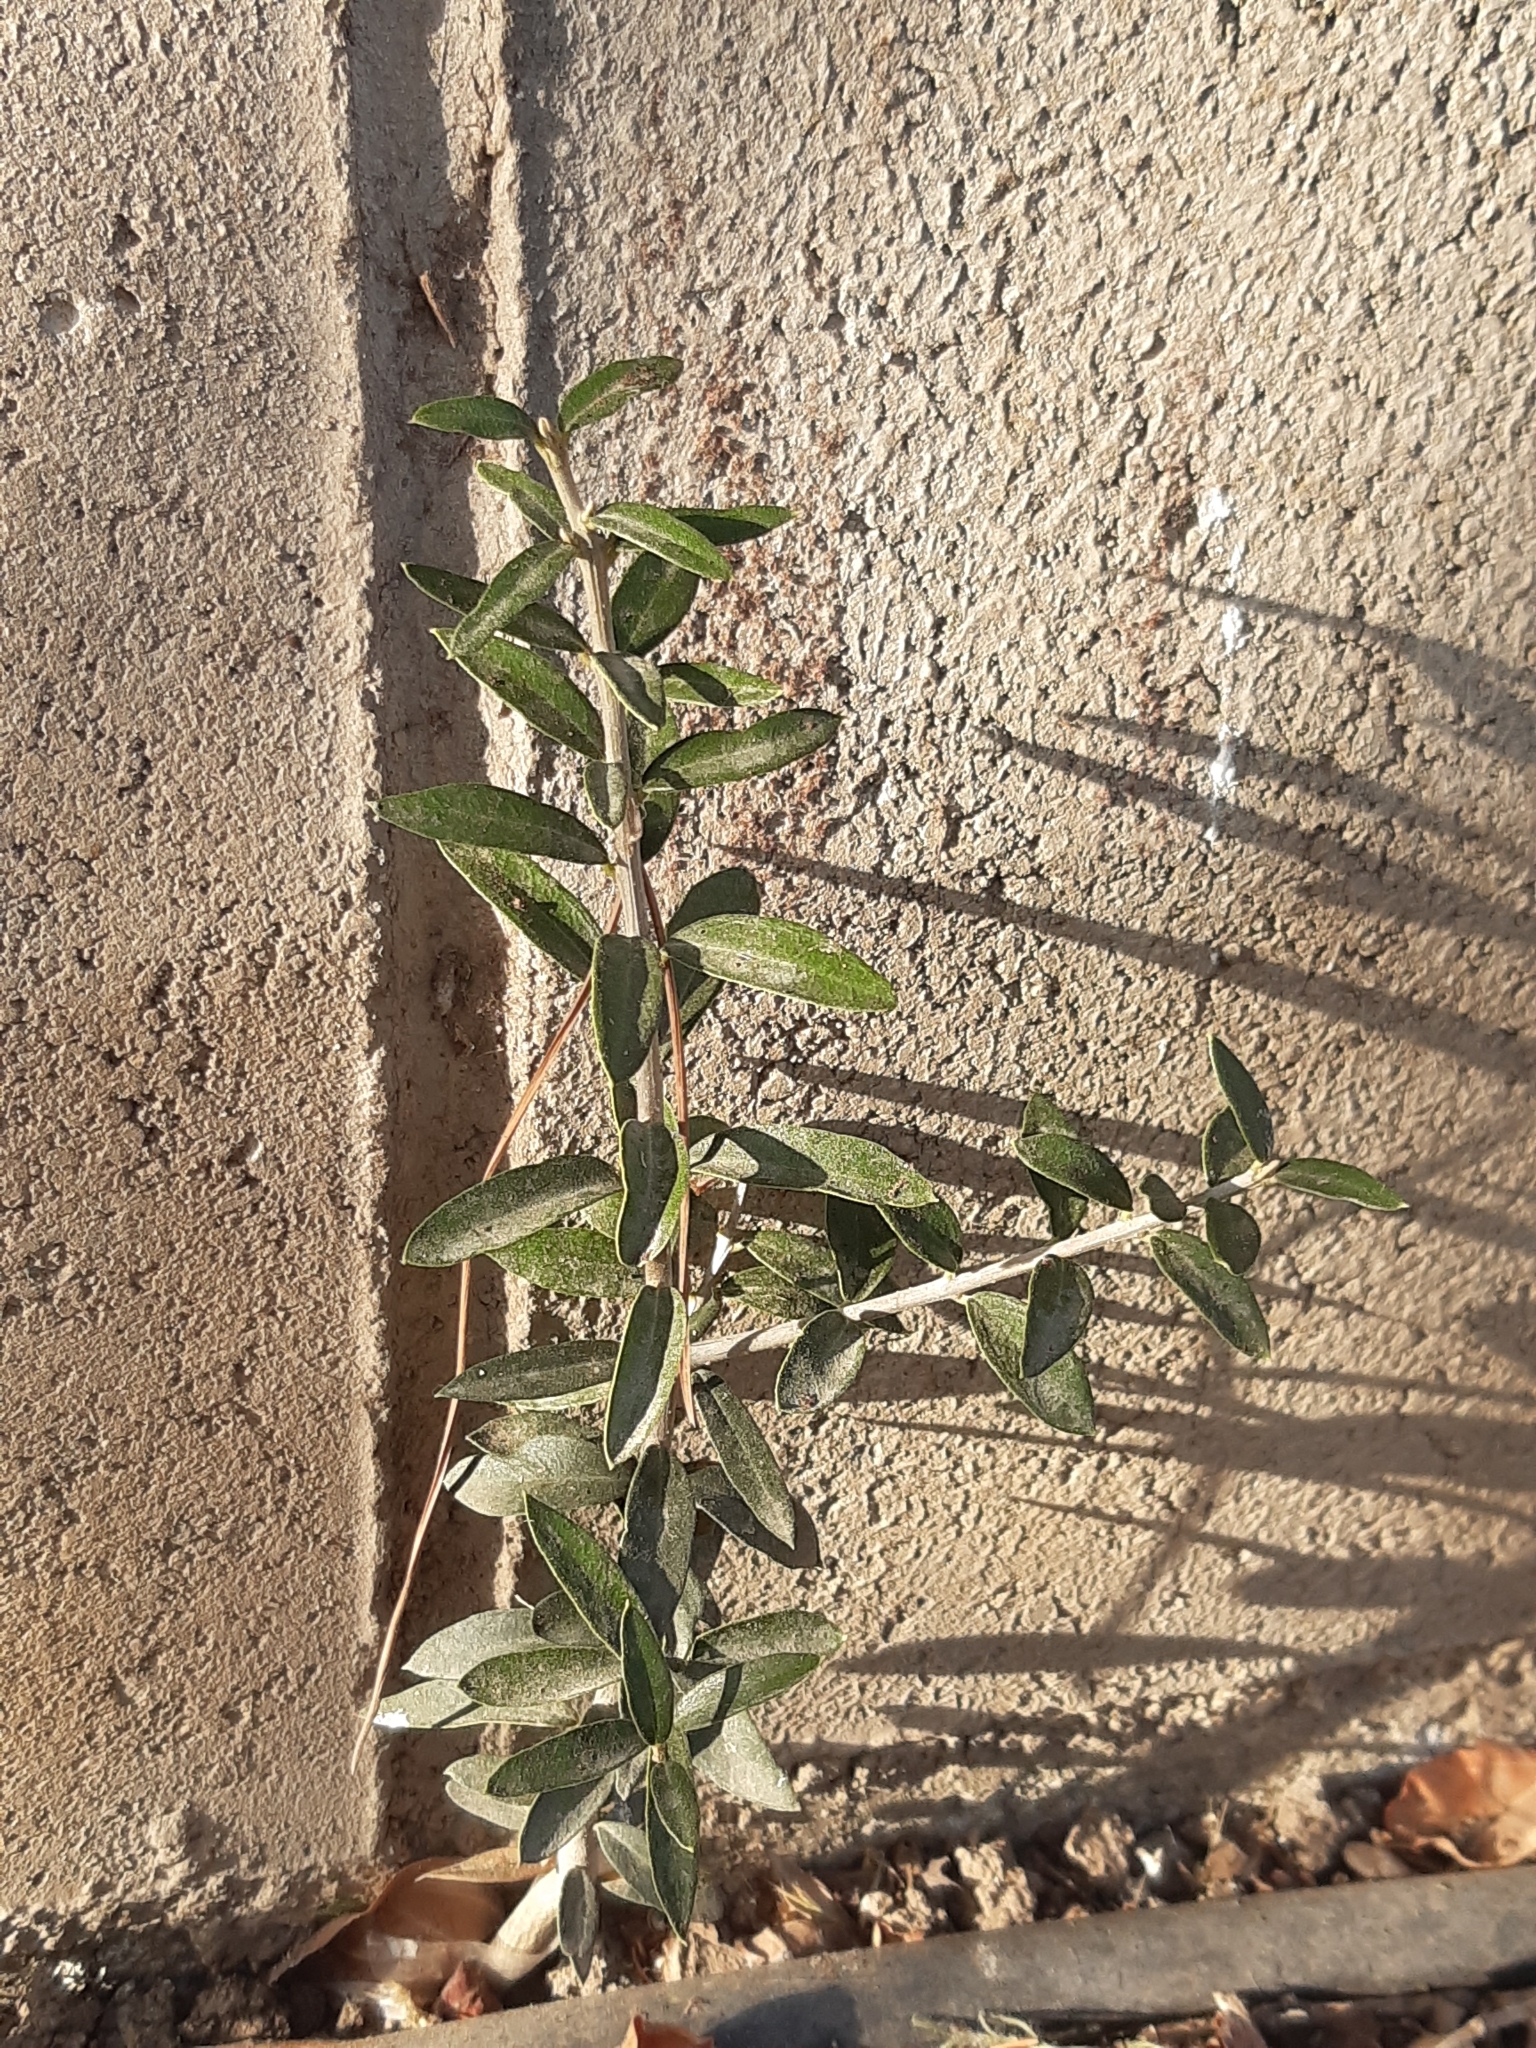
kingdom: Plantae
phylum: Tracheophyta
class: Magnoliopsida
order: Lamiales
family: Oleaceae
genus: Olea
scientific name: Olea europaea
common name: Olive
